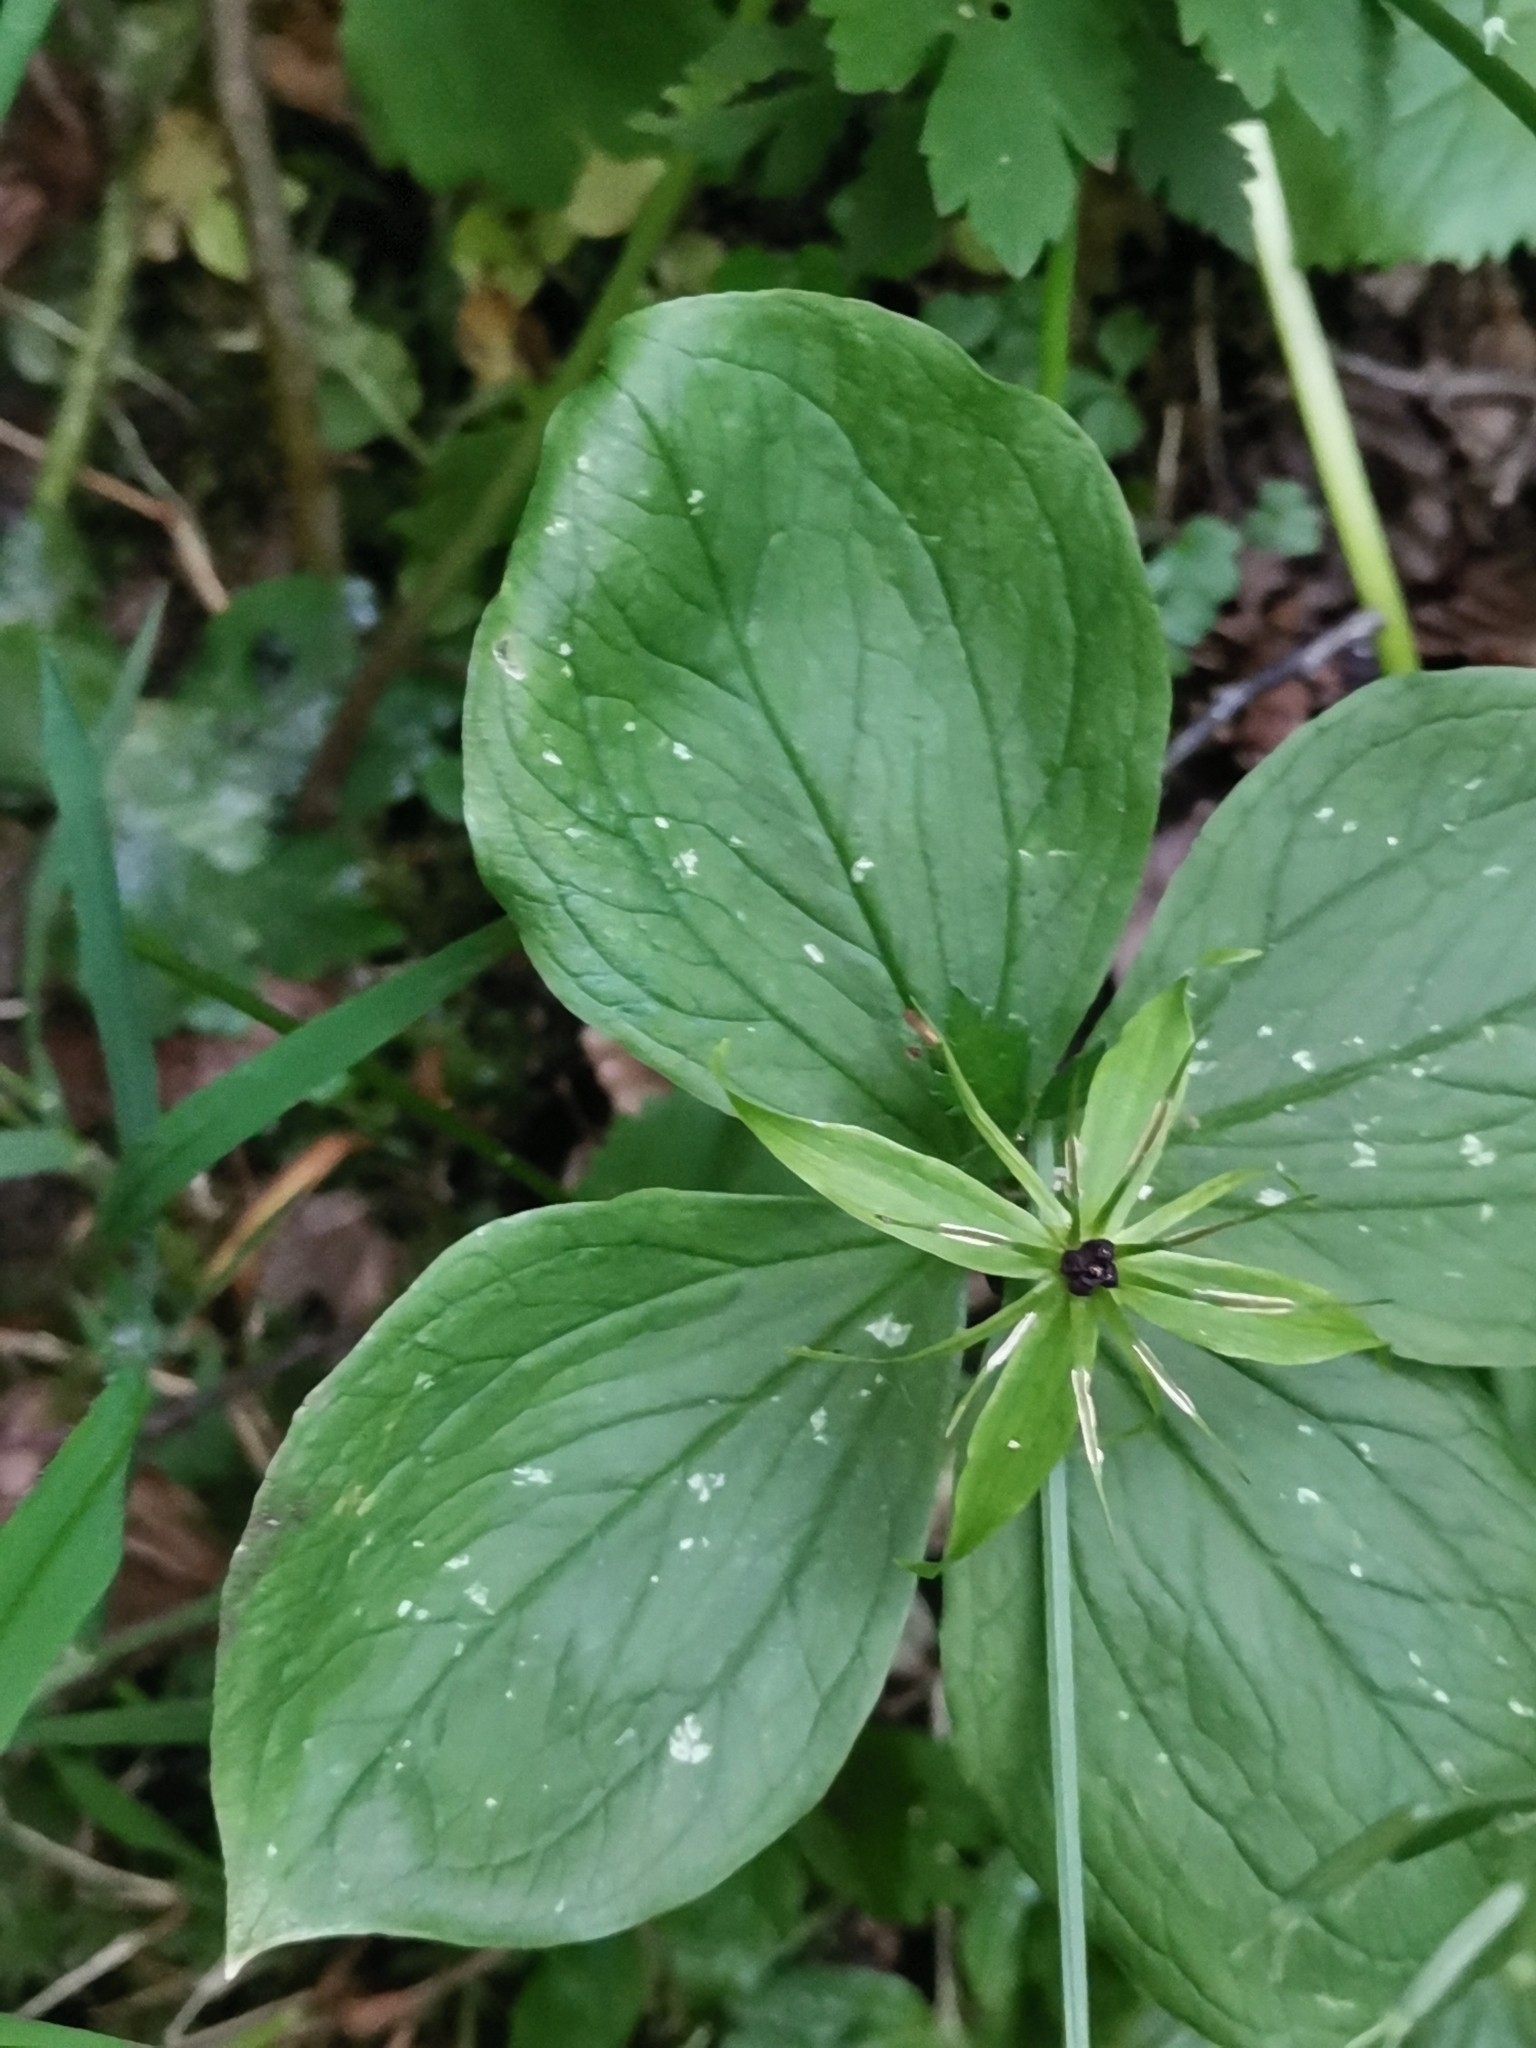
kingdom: Plantae
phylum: Tracheophyta
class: Liliopsida
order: Liliales
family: Melanthiaceae
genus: Paris
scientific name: Paris quadrifolia
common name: Herb-paris
